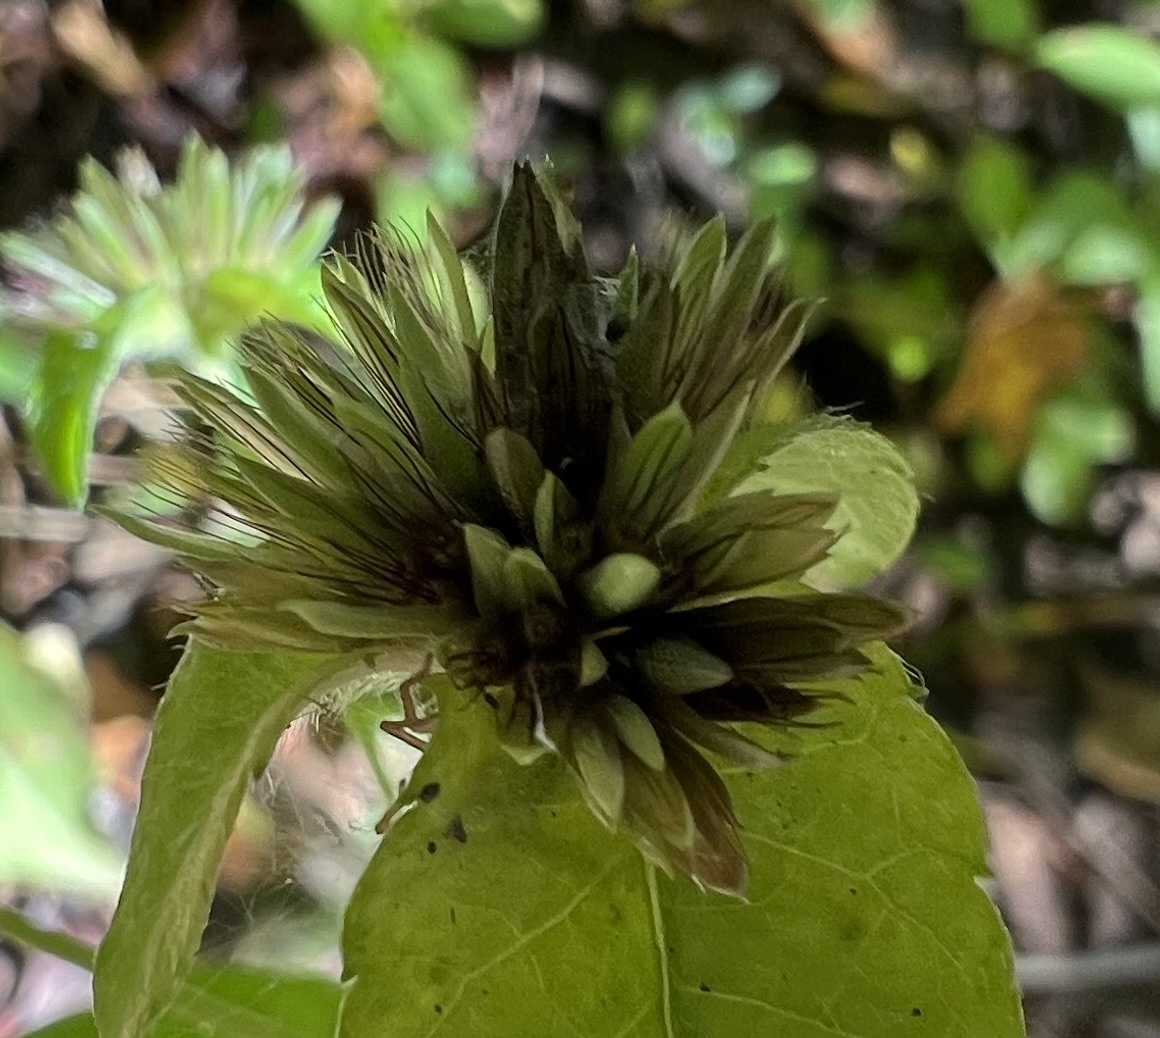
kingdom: Plantae
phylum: Tracheophyta
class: Magnoliopsida
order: Asterales
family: Asteraceae
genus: Elephantopus
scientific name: Elephantopus carolinianus
